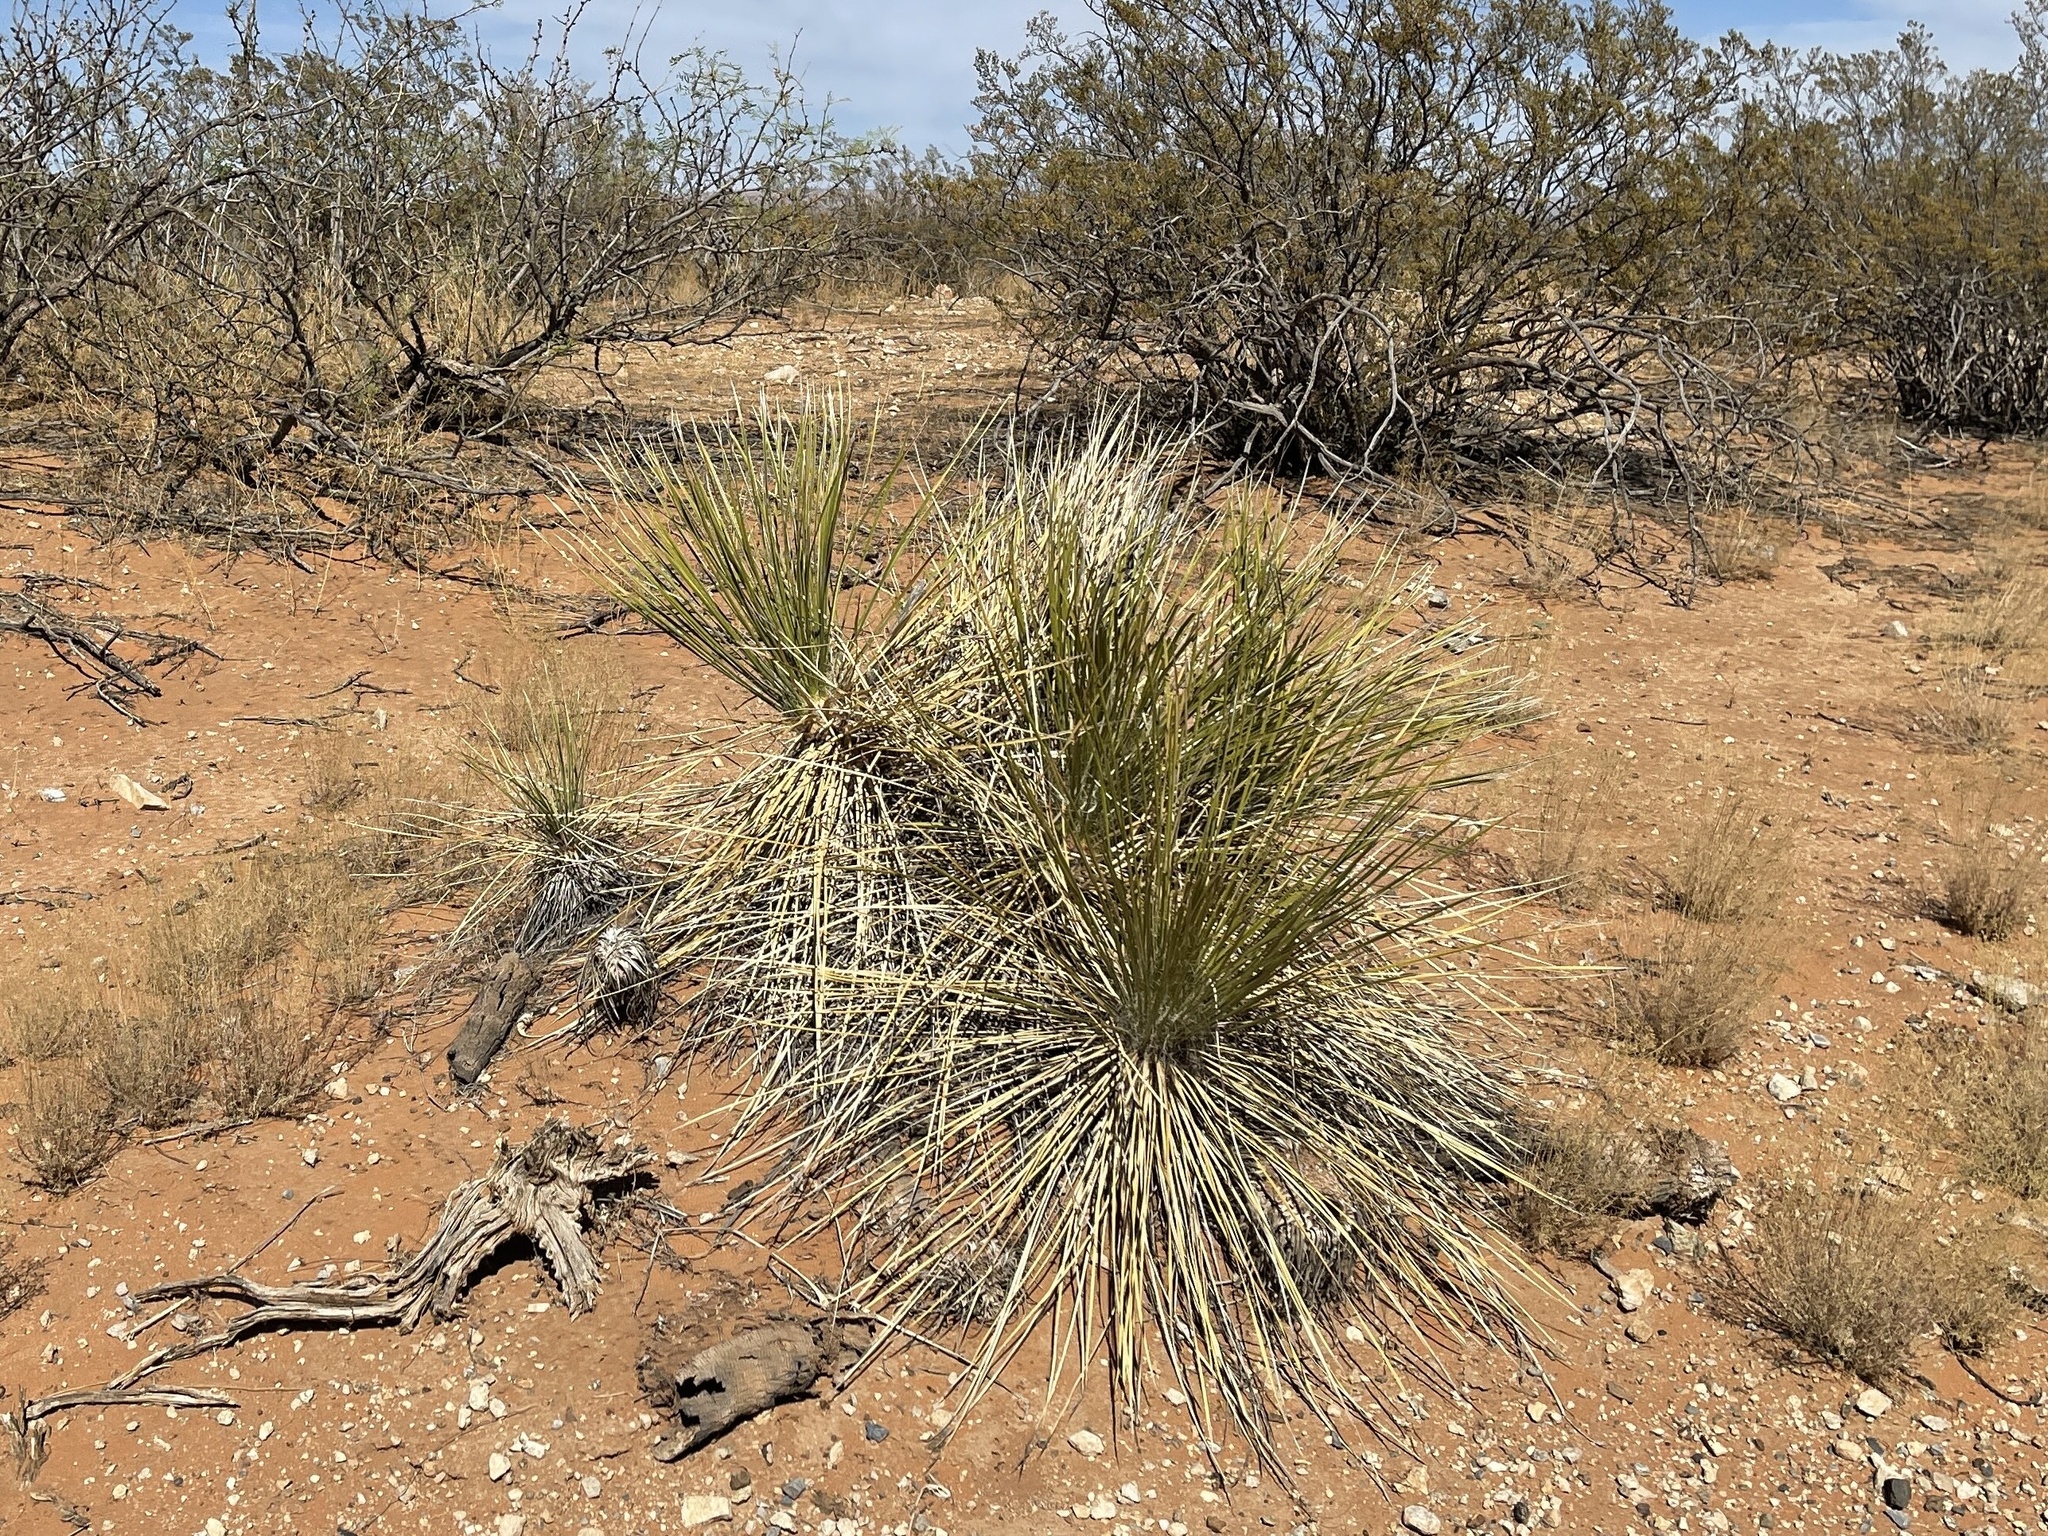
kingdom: Plantae
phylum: Tracheophyta
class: Liliopsida
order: Asparagales
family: Asparagaceae
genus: Yucca
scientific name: Yucca elata
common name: Palmella
